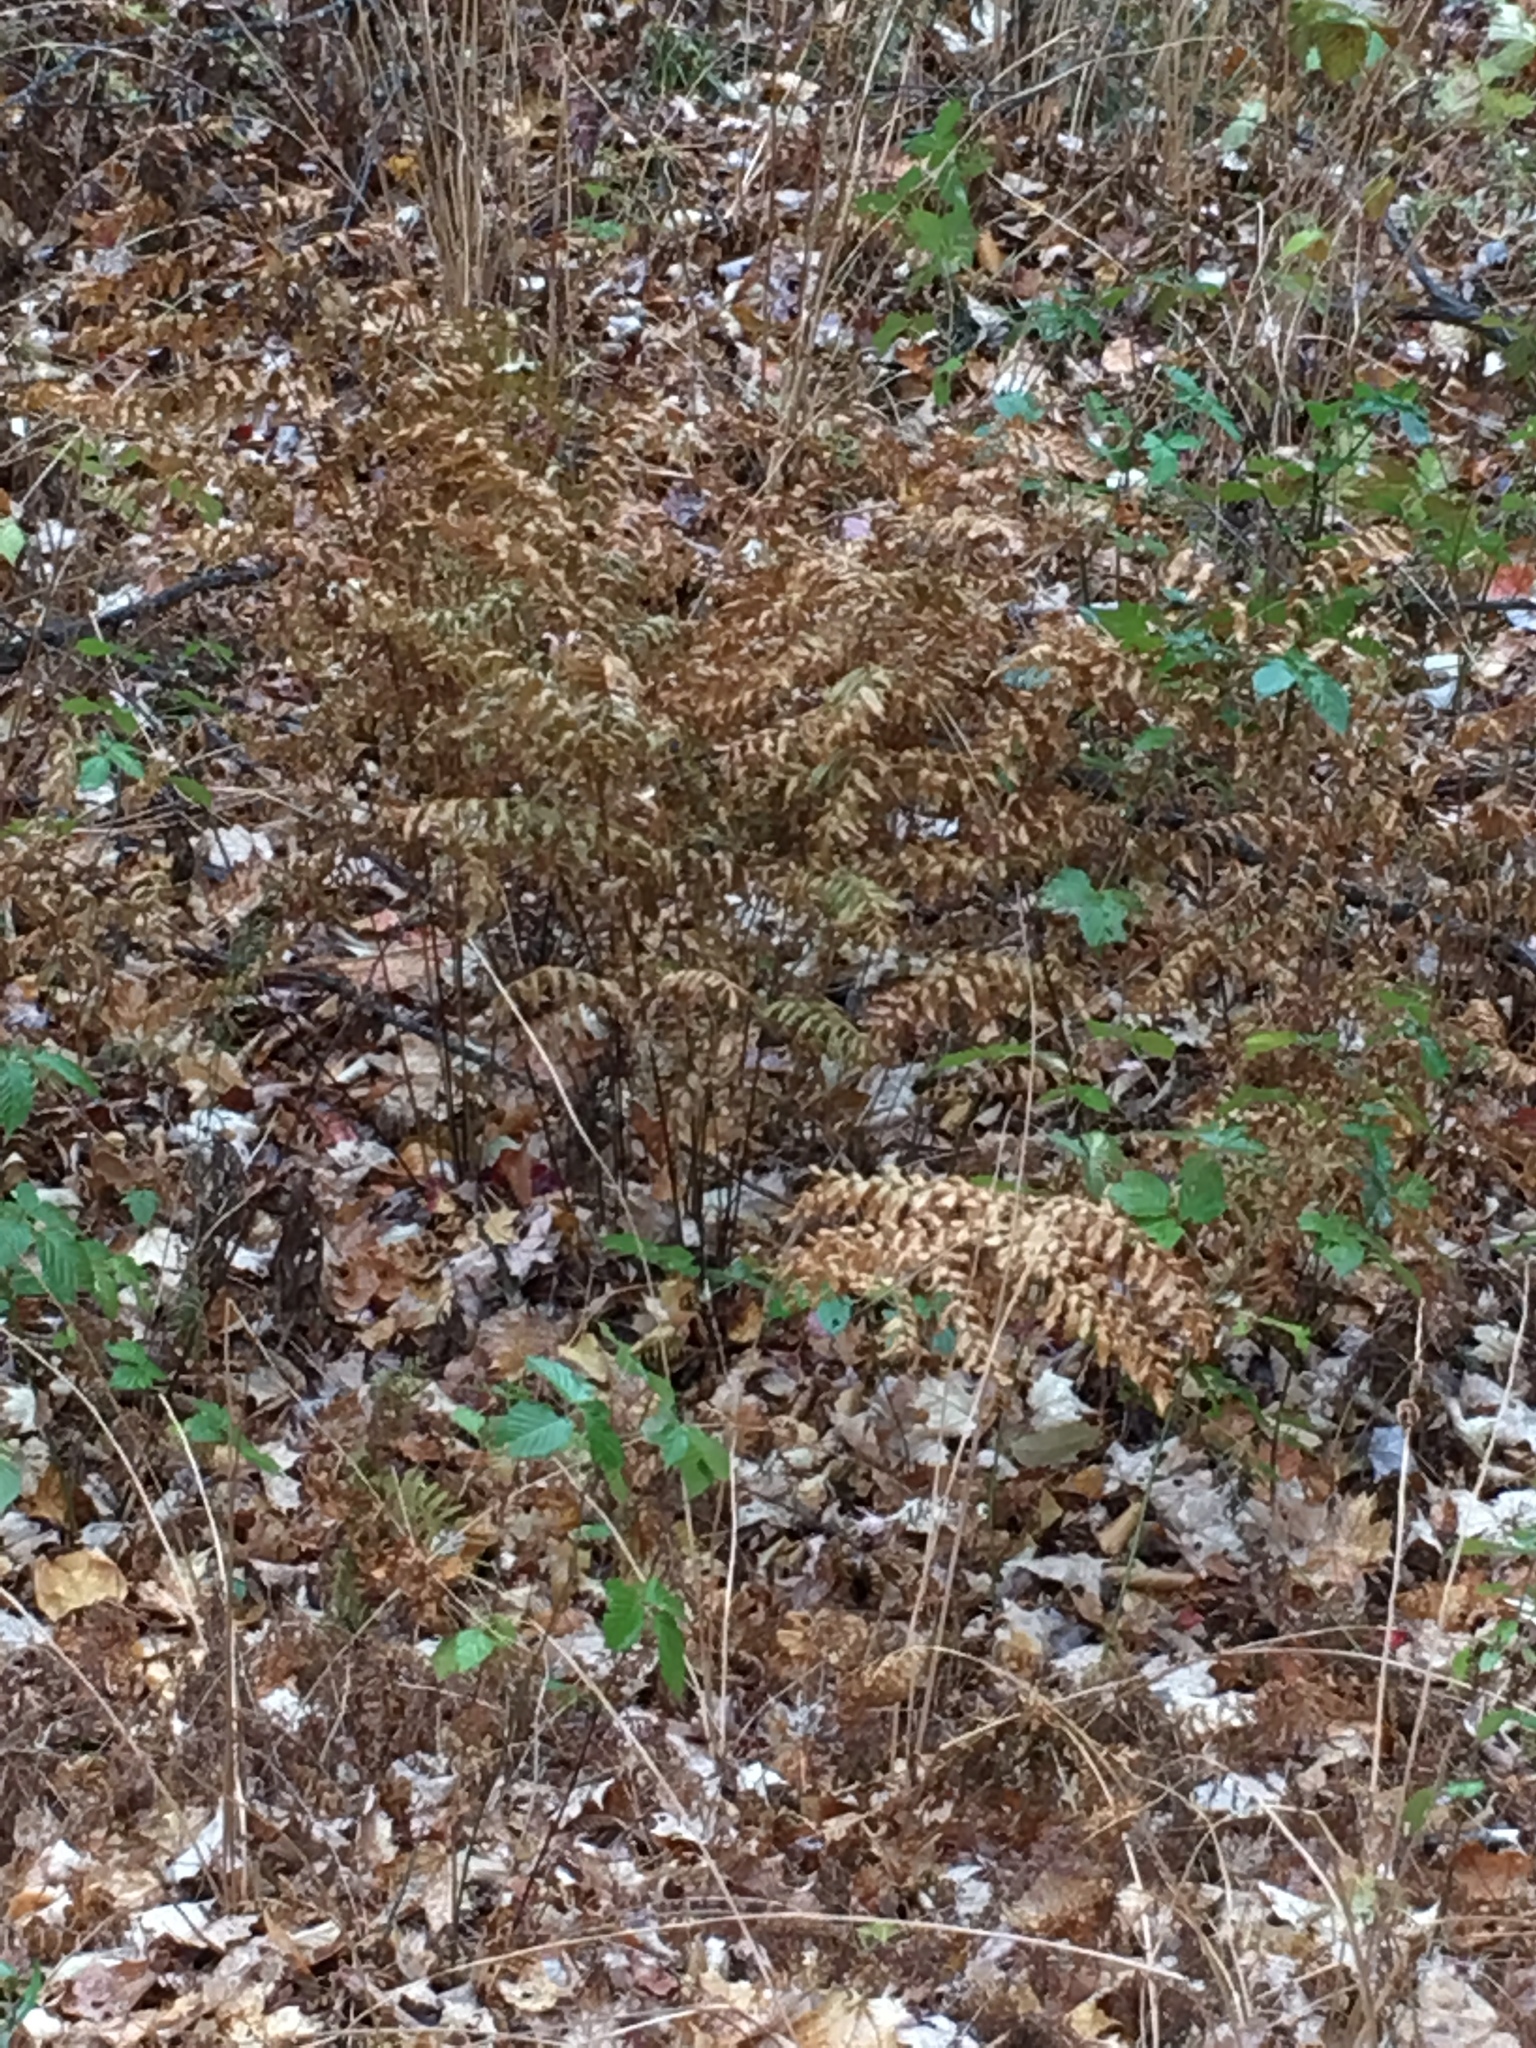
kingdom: Plantae
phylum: Tracheophyta
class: Polypodiopsida
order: Osmundales
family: Osmundaceae
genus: Osmunda
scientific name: Osmunda spectabilis
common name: American royal fern
